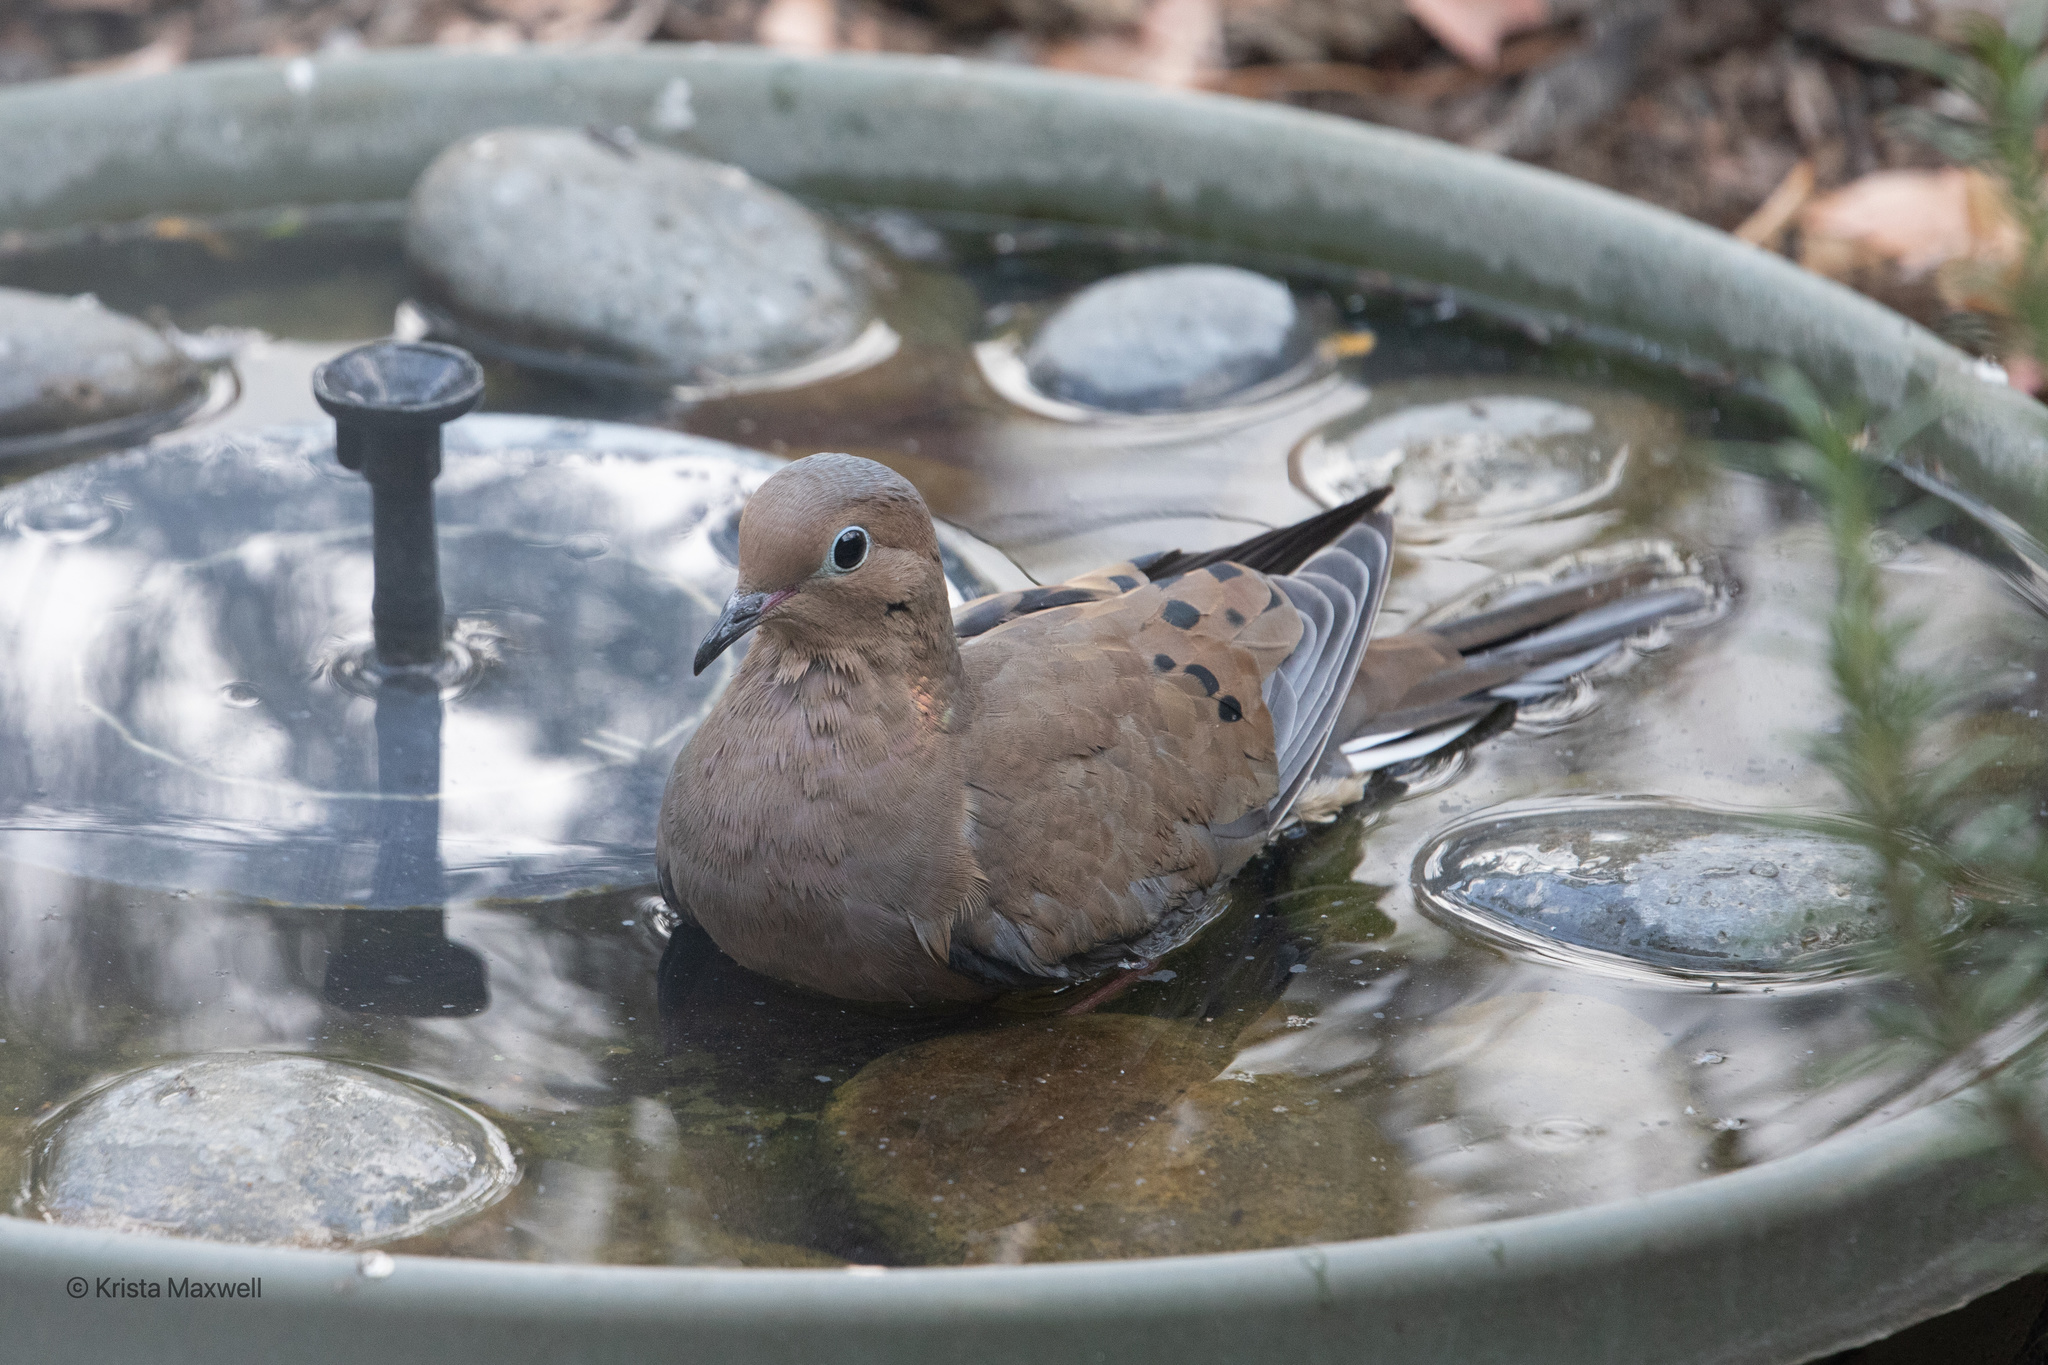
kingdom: Animalia
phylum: Chordata
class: Aves
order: Columbiformes
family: Columbidae
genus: Zenaida
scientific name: Zenaida macroura
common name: Mourning dove
